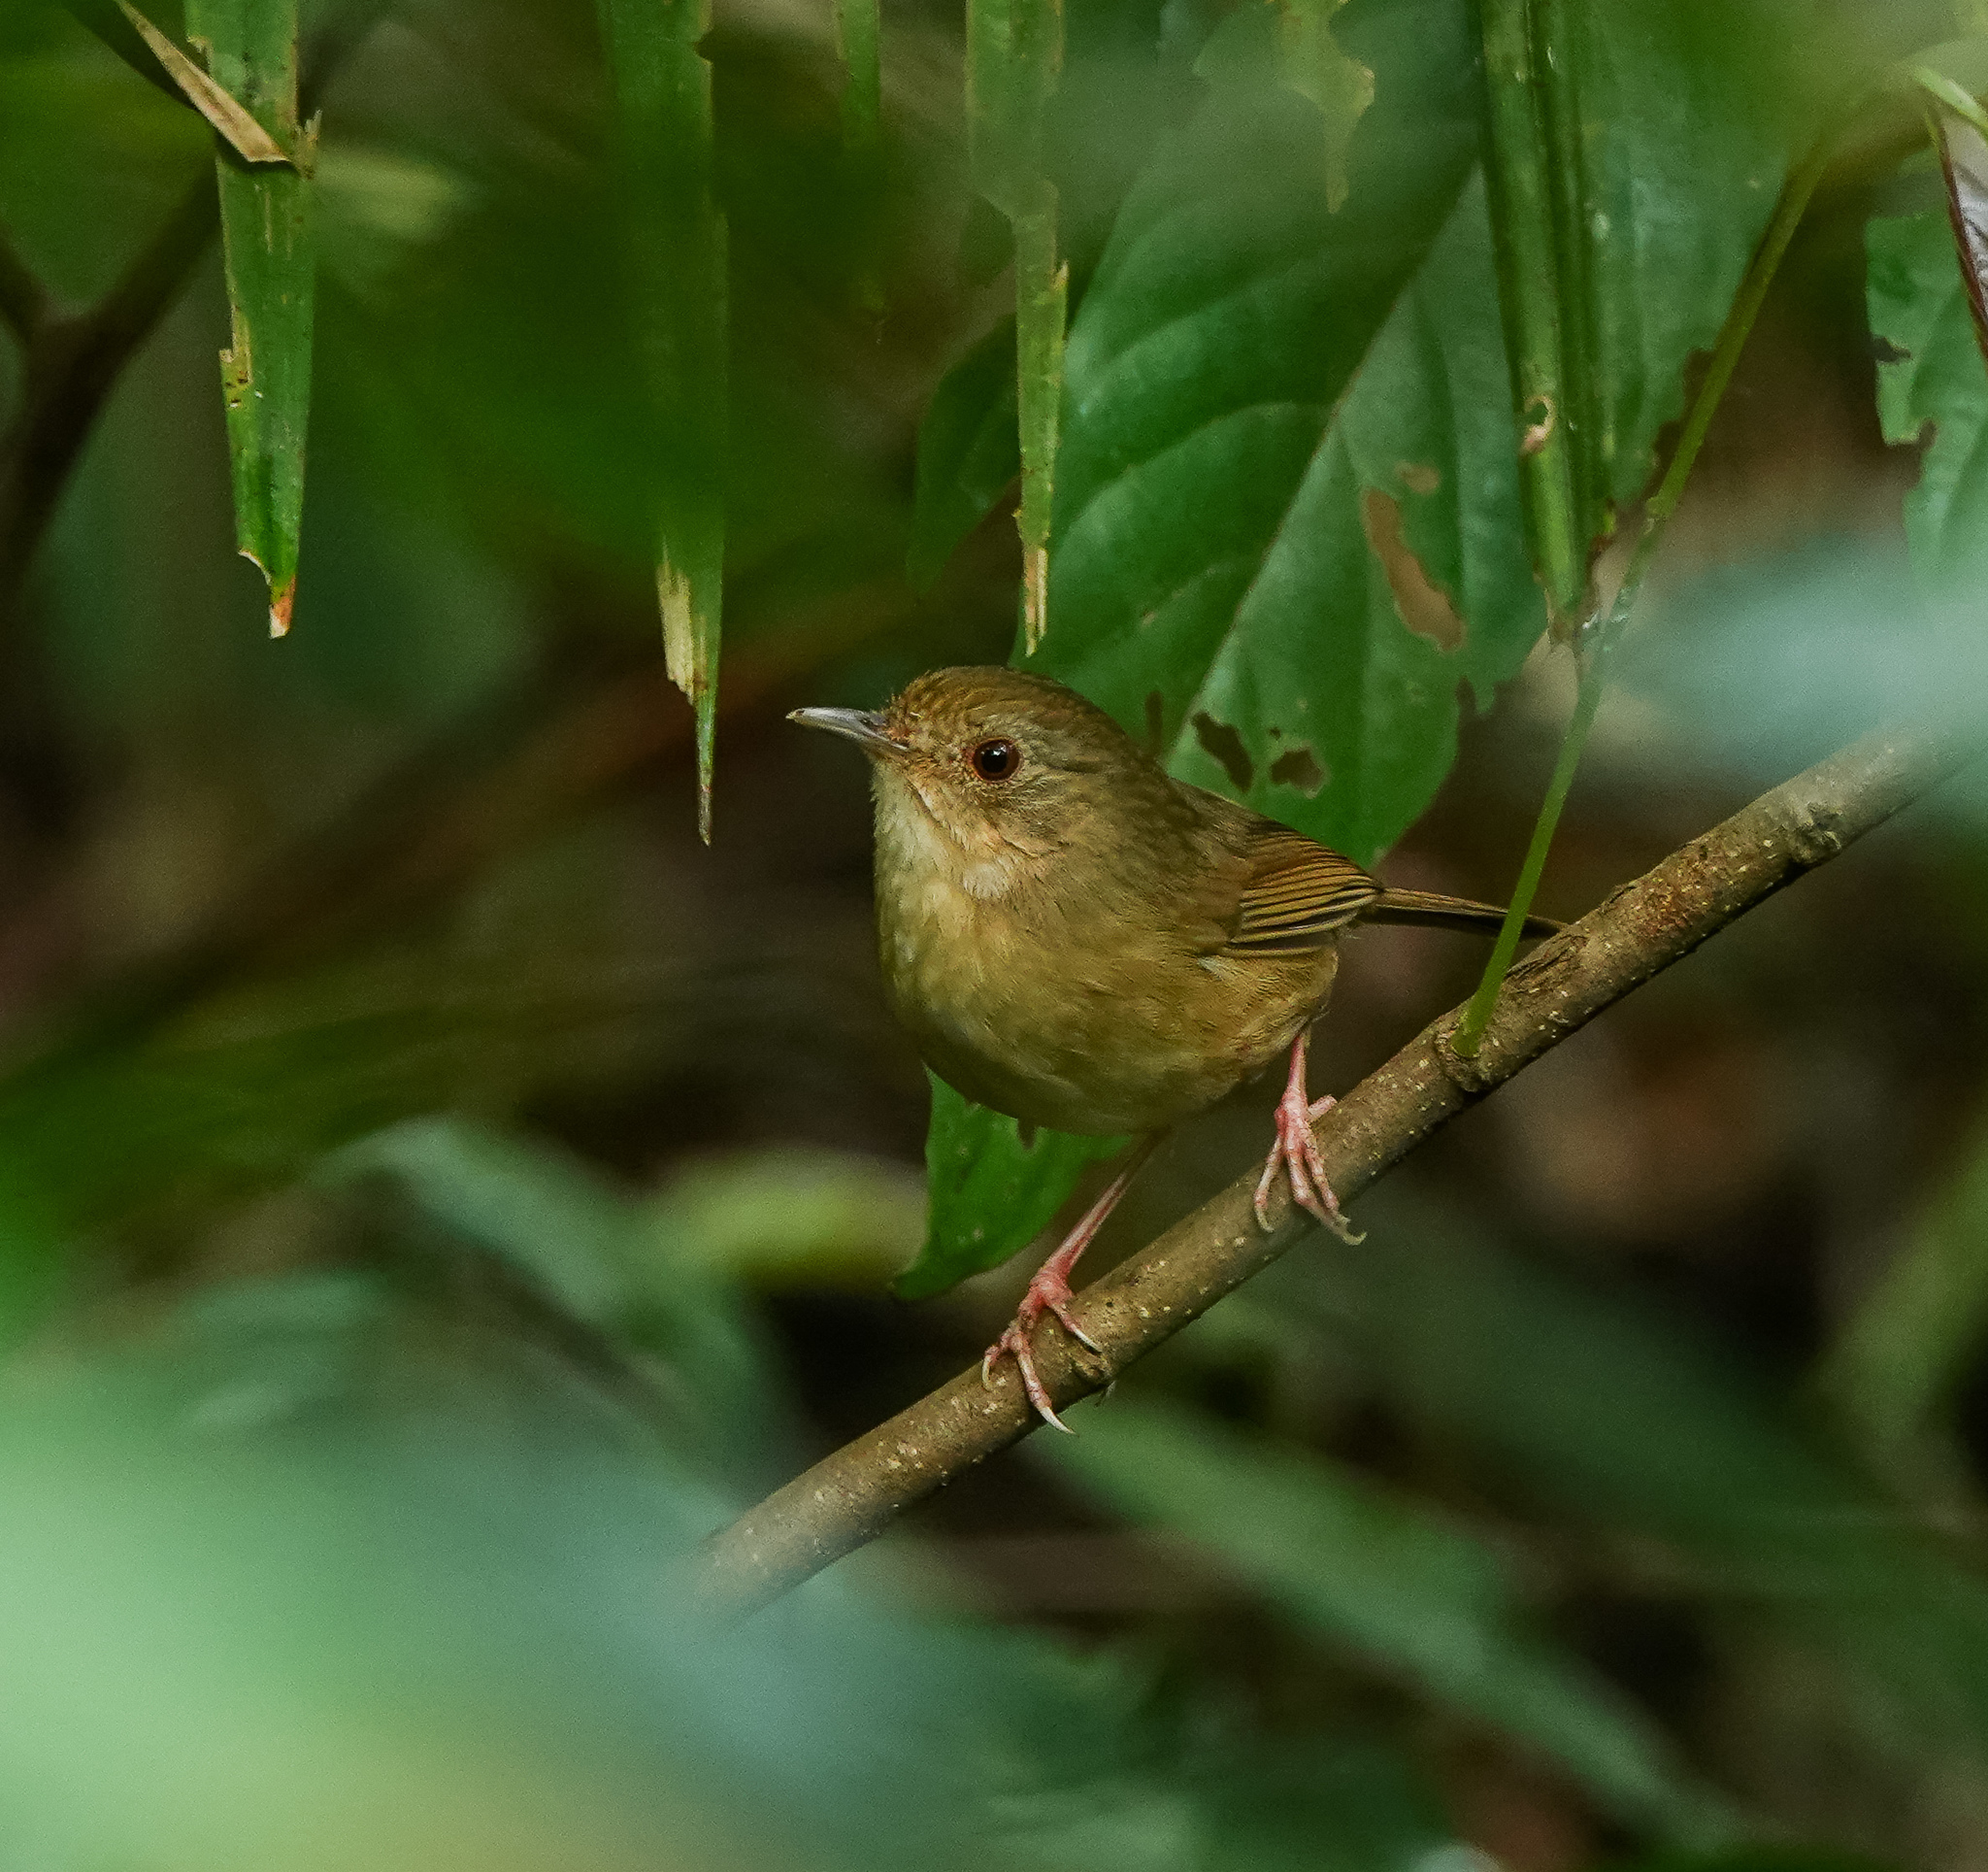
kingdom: Animalia
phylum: Chordata
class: Aves
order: Passeriformes
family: Pellorneidae
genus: Pellorneum
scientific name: Pellorneum tickelli
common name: Buff-breasted babbler
